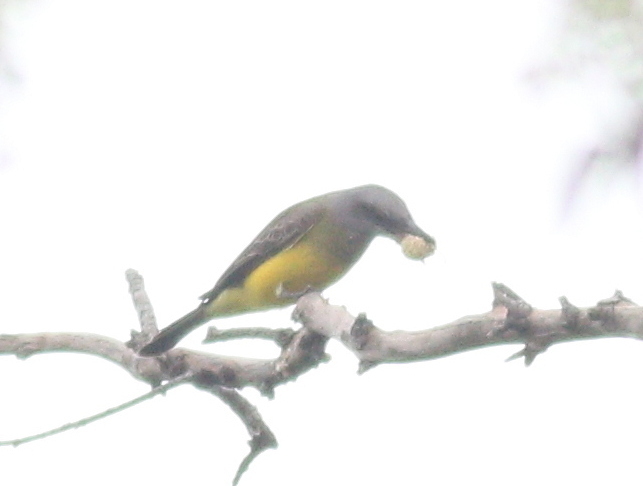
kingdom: Animalia
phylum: Chordata
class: Aves
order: Passeriformes
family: Tyrannidae
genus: Tyrannus
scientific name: Tyrannus melancholicus
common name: Tropical kingbird
